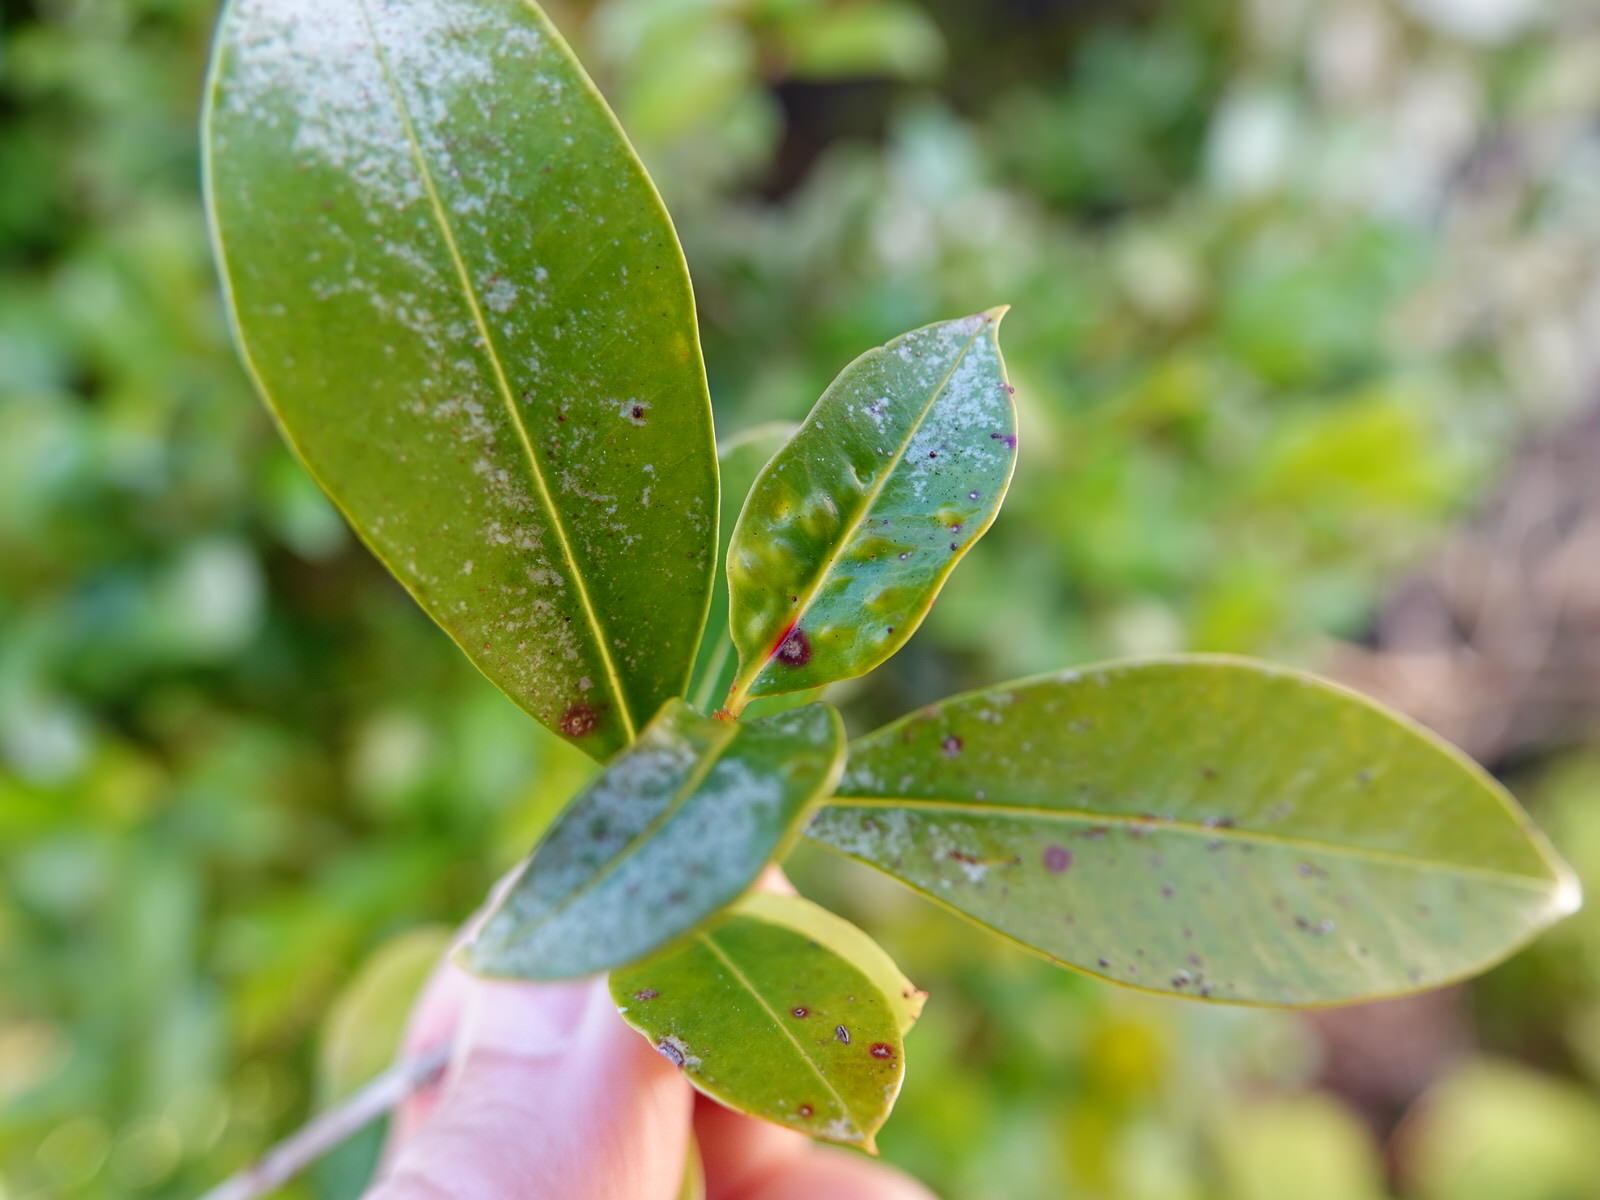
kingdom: Fungi
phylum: Basidiomycota
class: Pucciniomycetes
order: Pucciniales
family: Sphaerophragmiaceae
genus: Austropuccinia
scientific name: Austropuccinia psidii
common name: Myrtle rust
